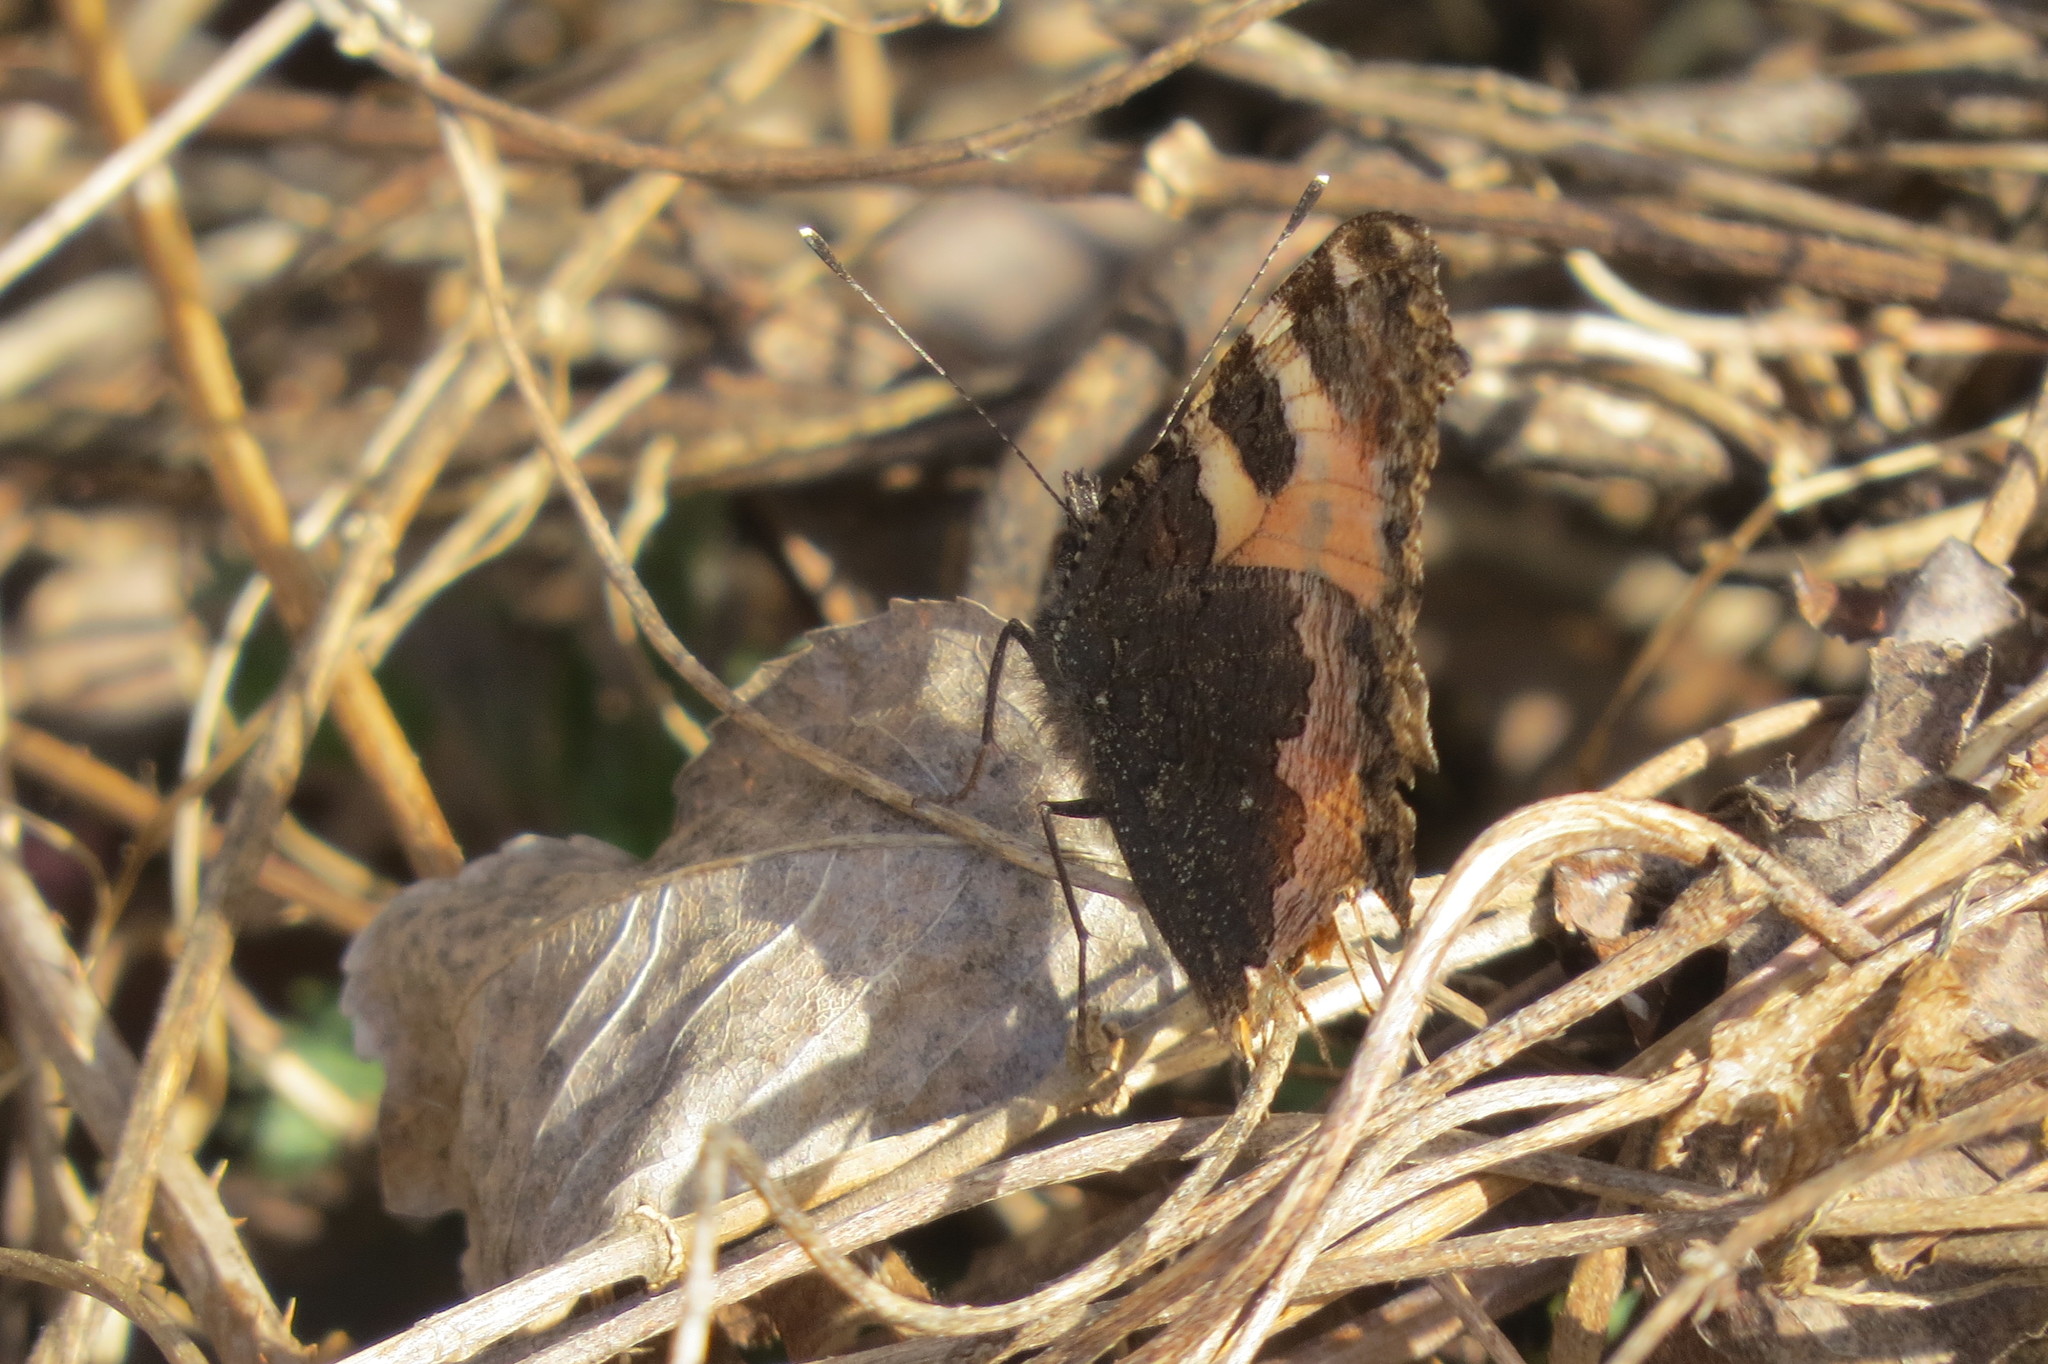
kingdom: Animalia
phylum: Arthropoda
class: Insecta
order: Lepidoptera
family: Nymphalidae
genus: Aglais
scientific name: Aglais urticae
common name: Small tortoiseshell
